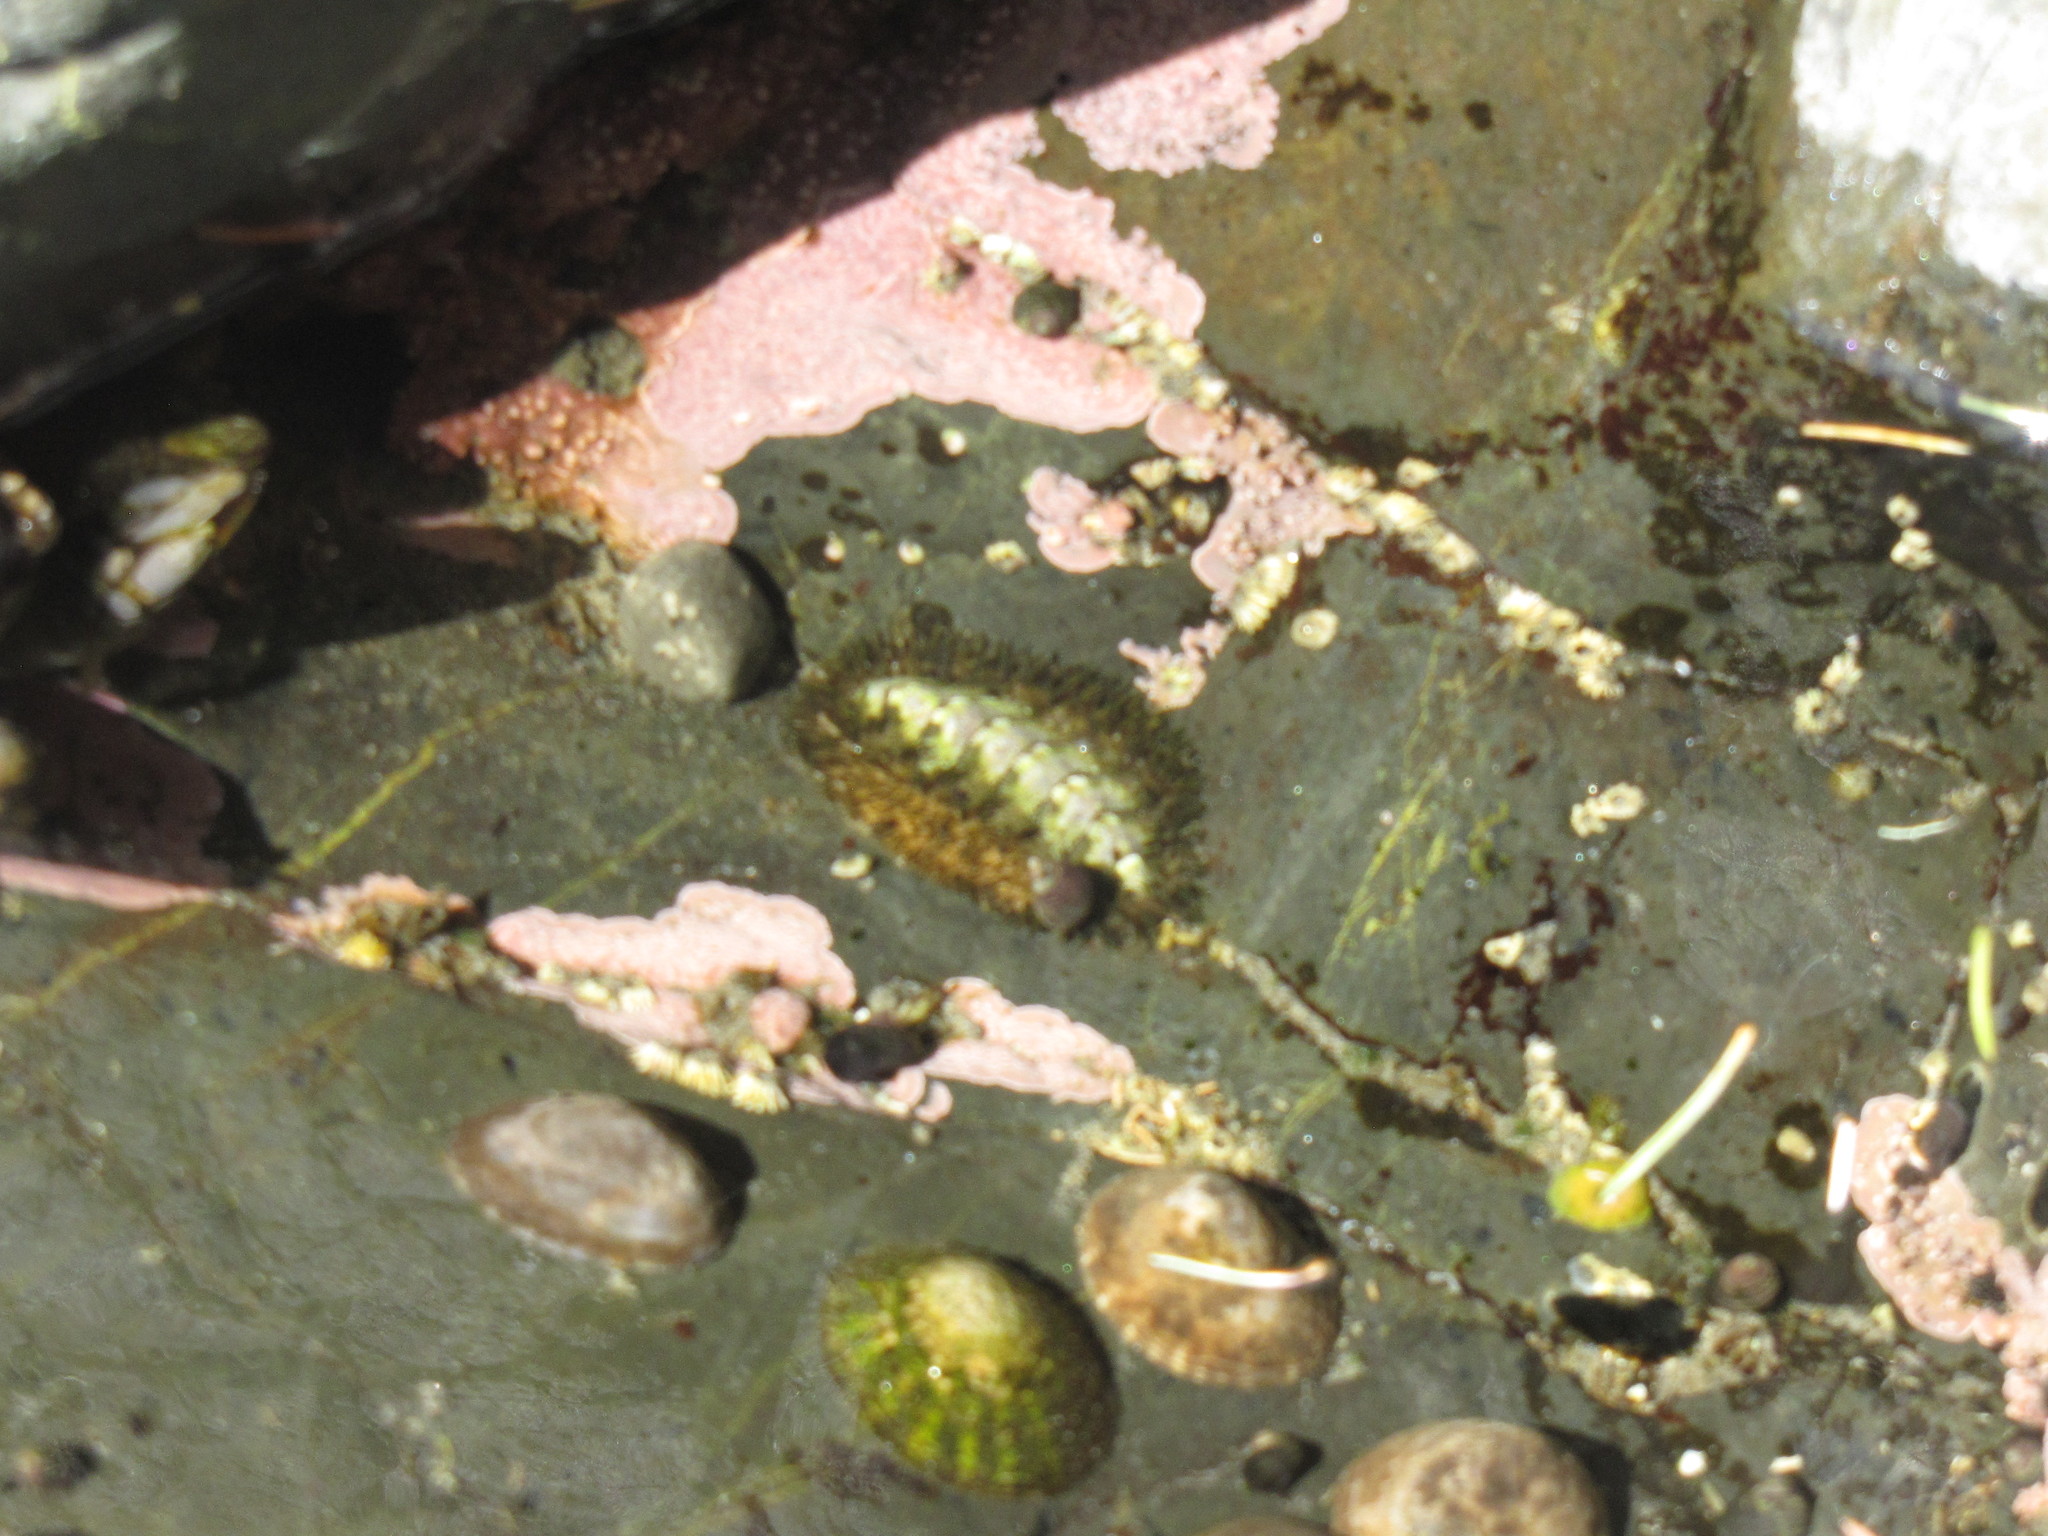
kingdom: Animalia
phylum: Mollusca
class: Polyplacophora
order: Chitonida
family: Mopaliidae
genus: Mopalia
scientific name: Mopalia muscosa
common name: Mossy chiton
